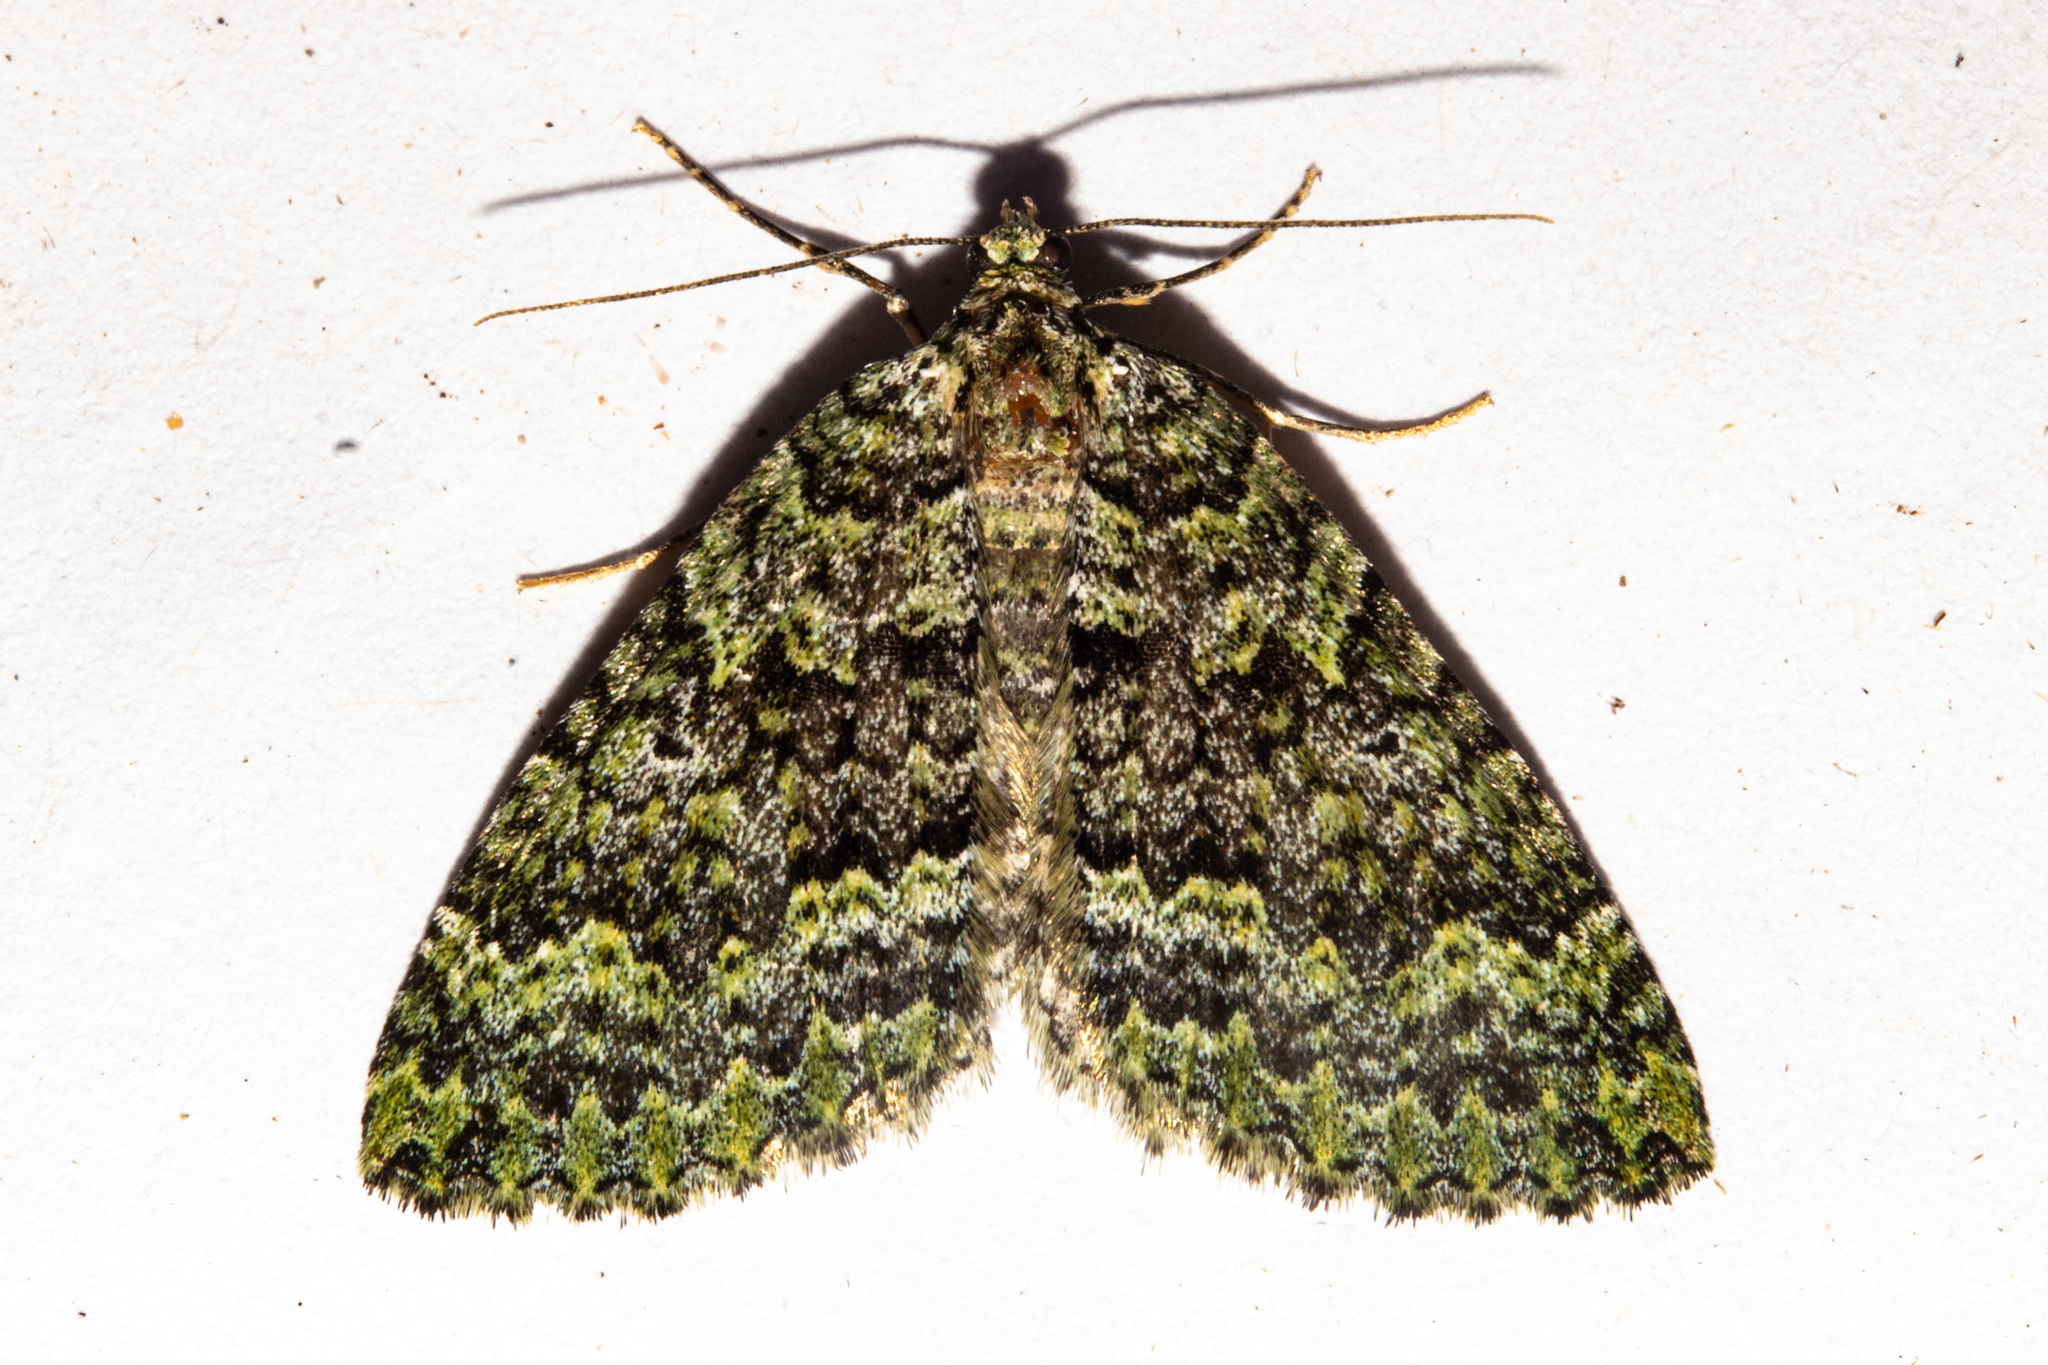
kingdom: Animalia
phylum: Arthropoda
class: Insecta
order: Lepidoptera
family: Geometridae
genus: Austrocidaria
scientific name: Austrocidaria callichlora
